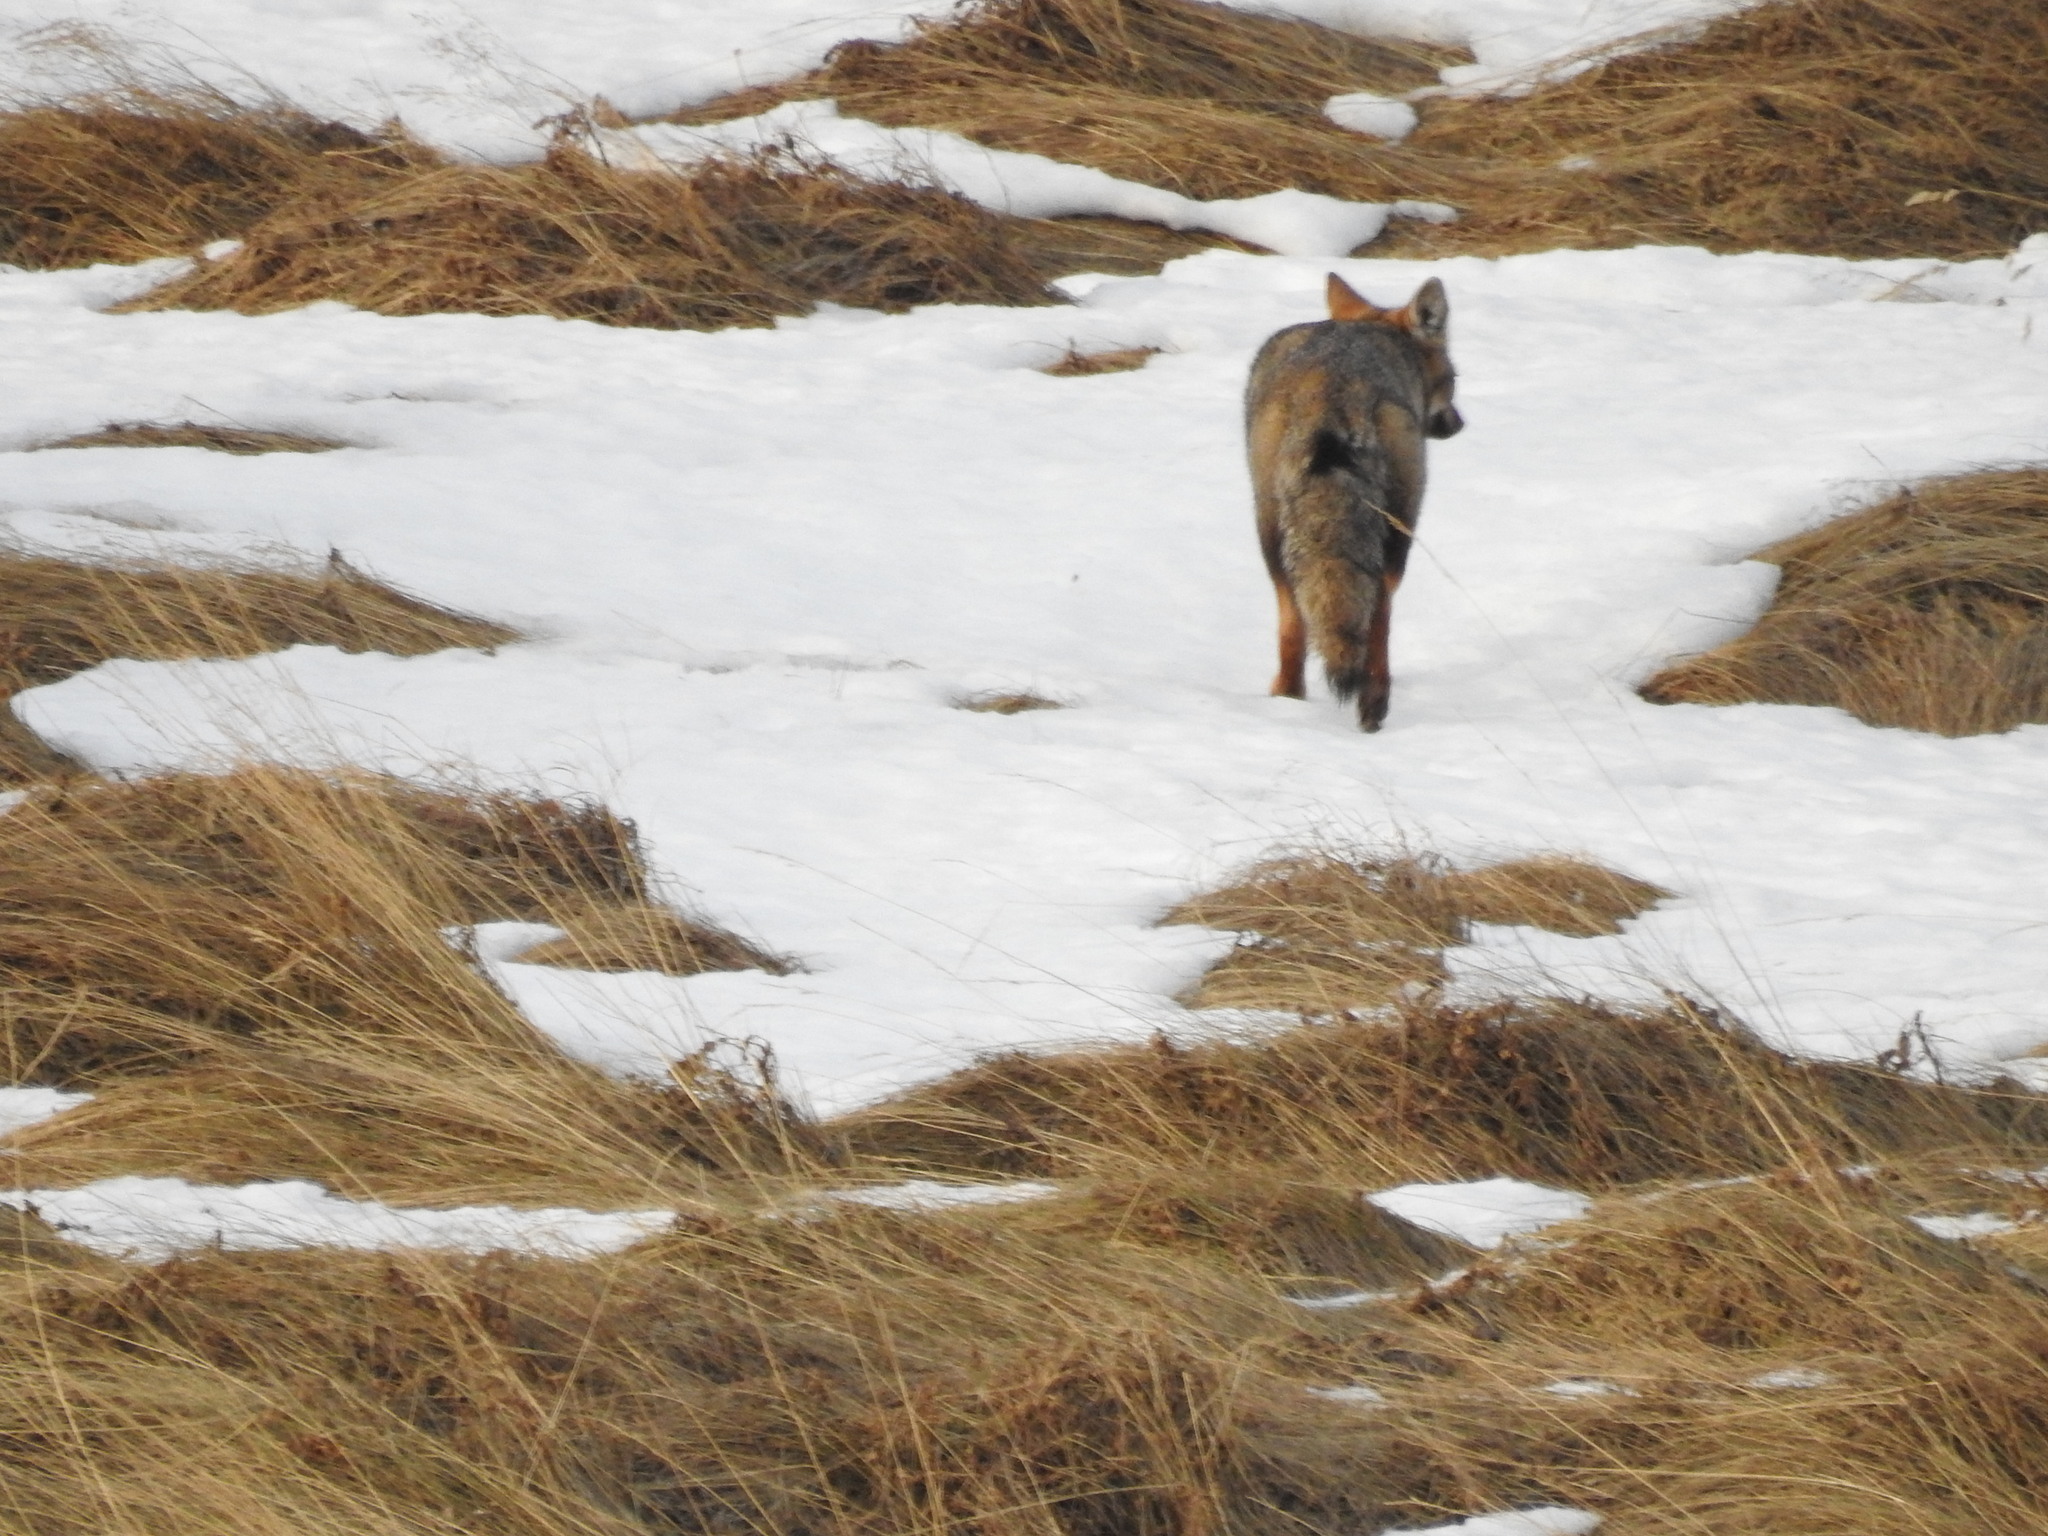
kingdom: Animalia
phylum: Chordata
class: Mammalia
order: Carnivora
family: Canidae
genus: Lycalopex
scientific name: Lycalopex gymnocercus
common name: Pampas fox
